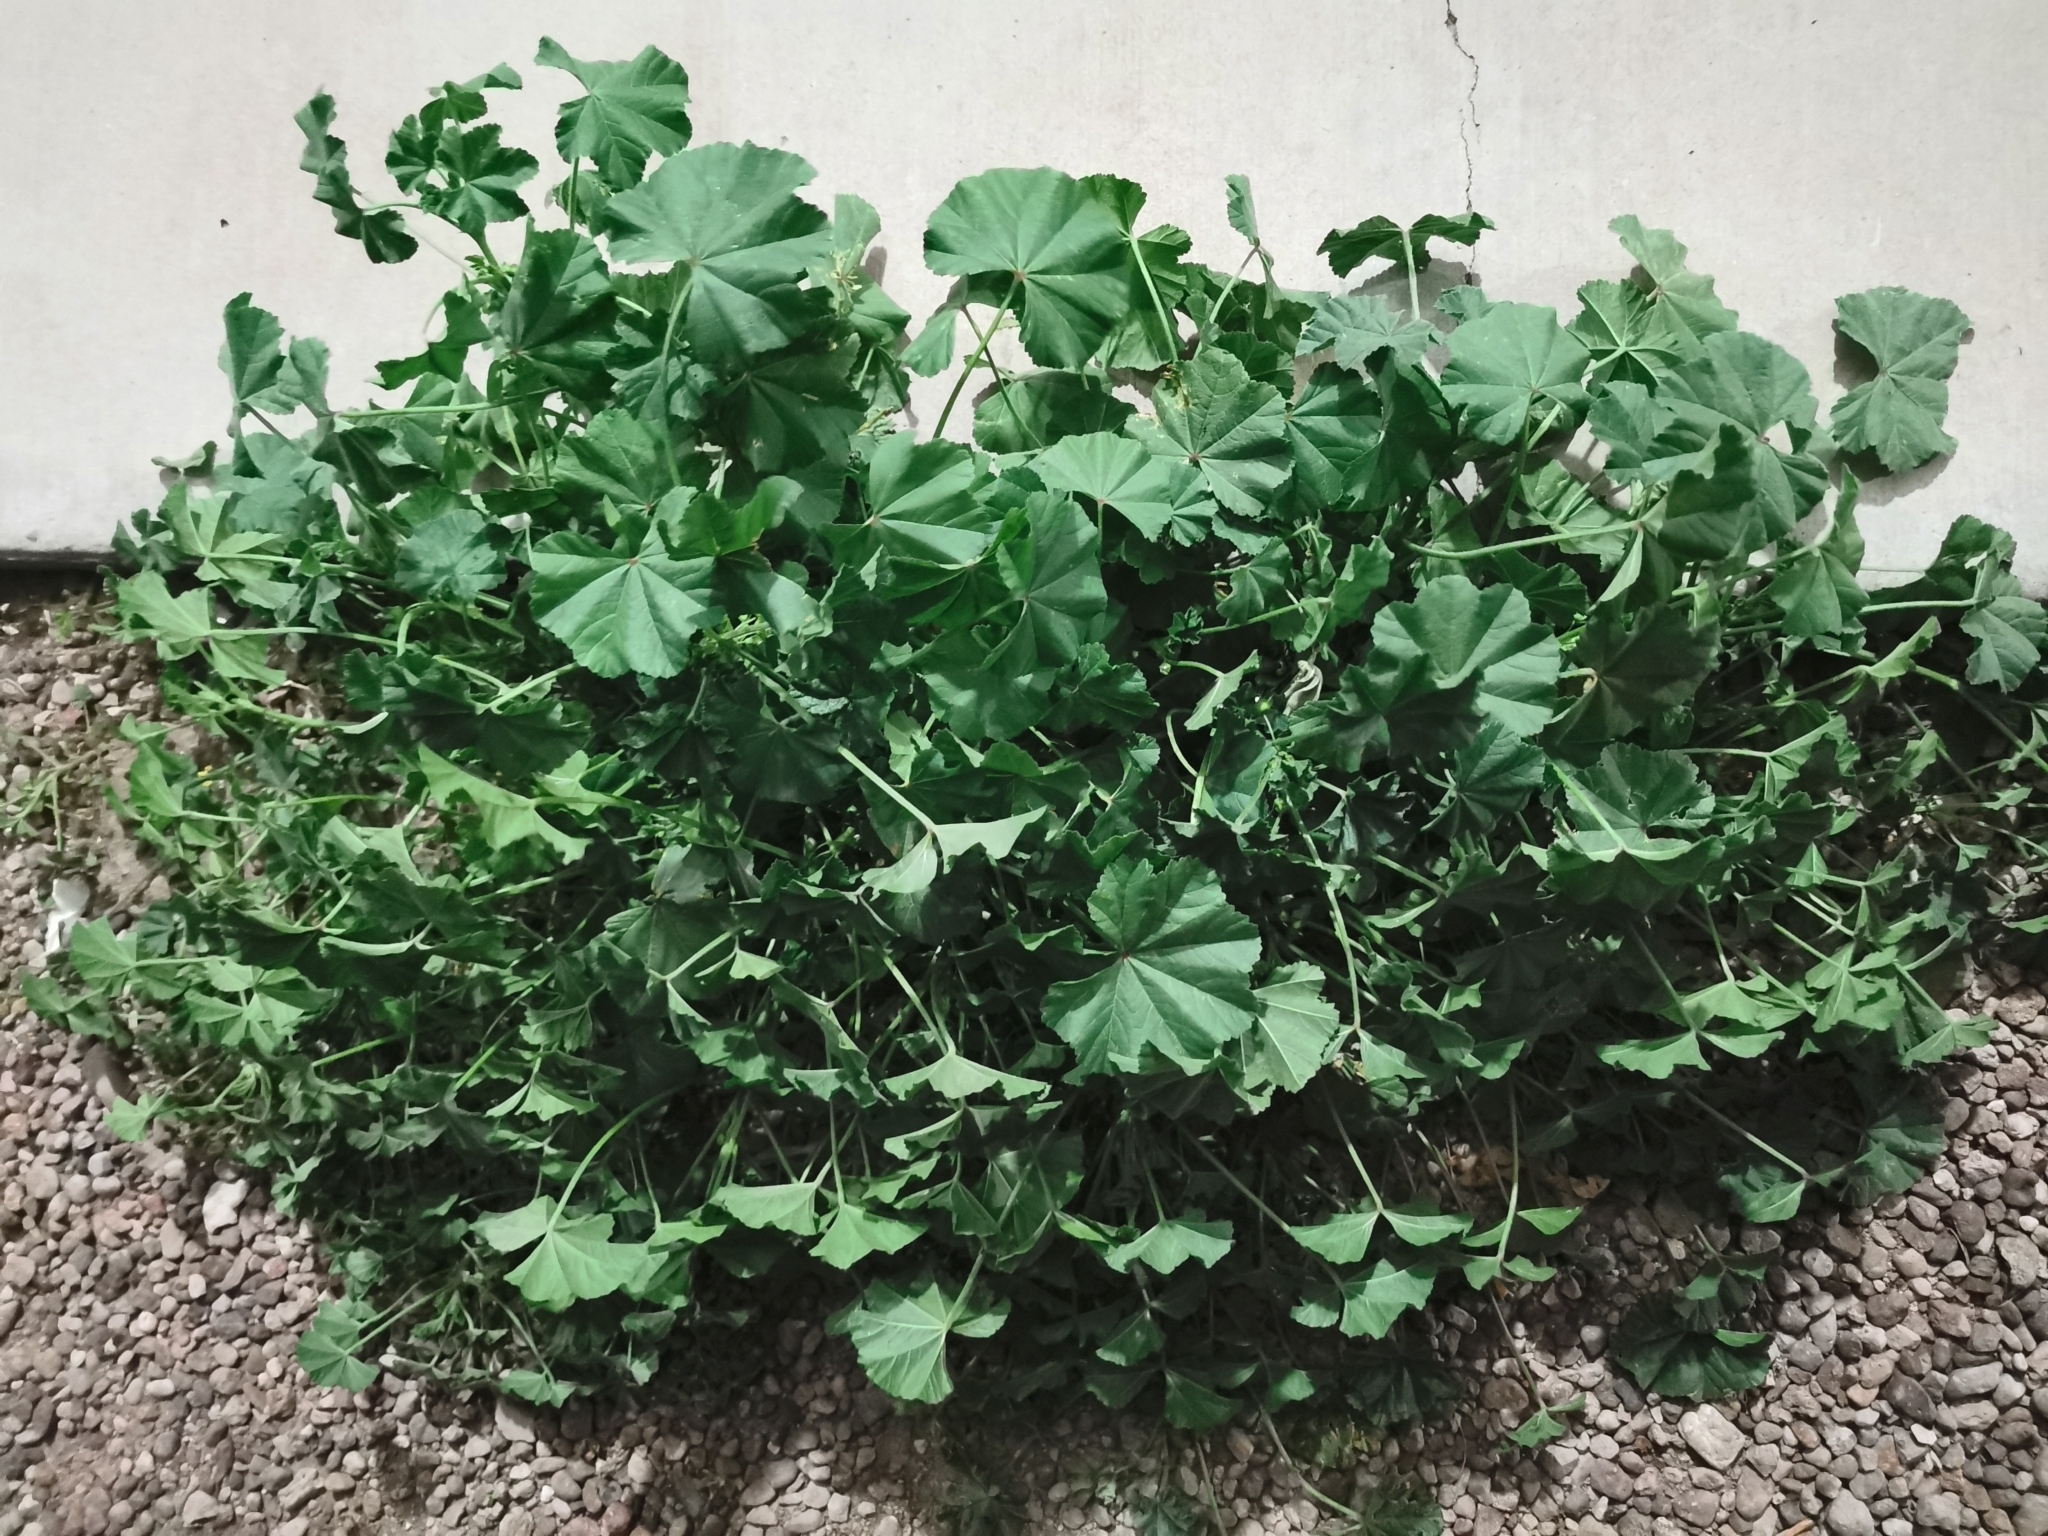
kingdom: Plantae
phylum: Tracheophyta
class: Magnoliopsida
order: Malvales
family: Malvaceae
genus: Malva
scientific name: Malva parviflora
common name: Least mallow
